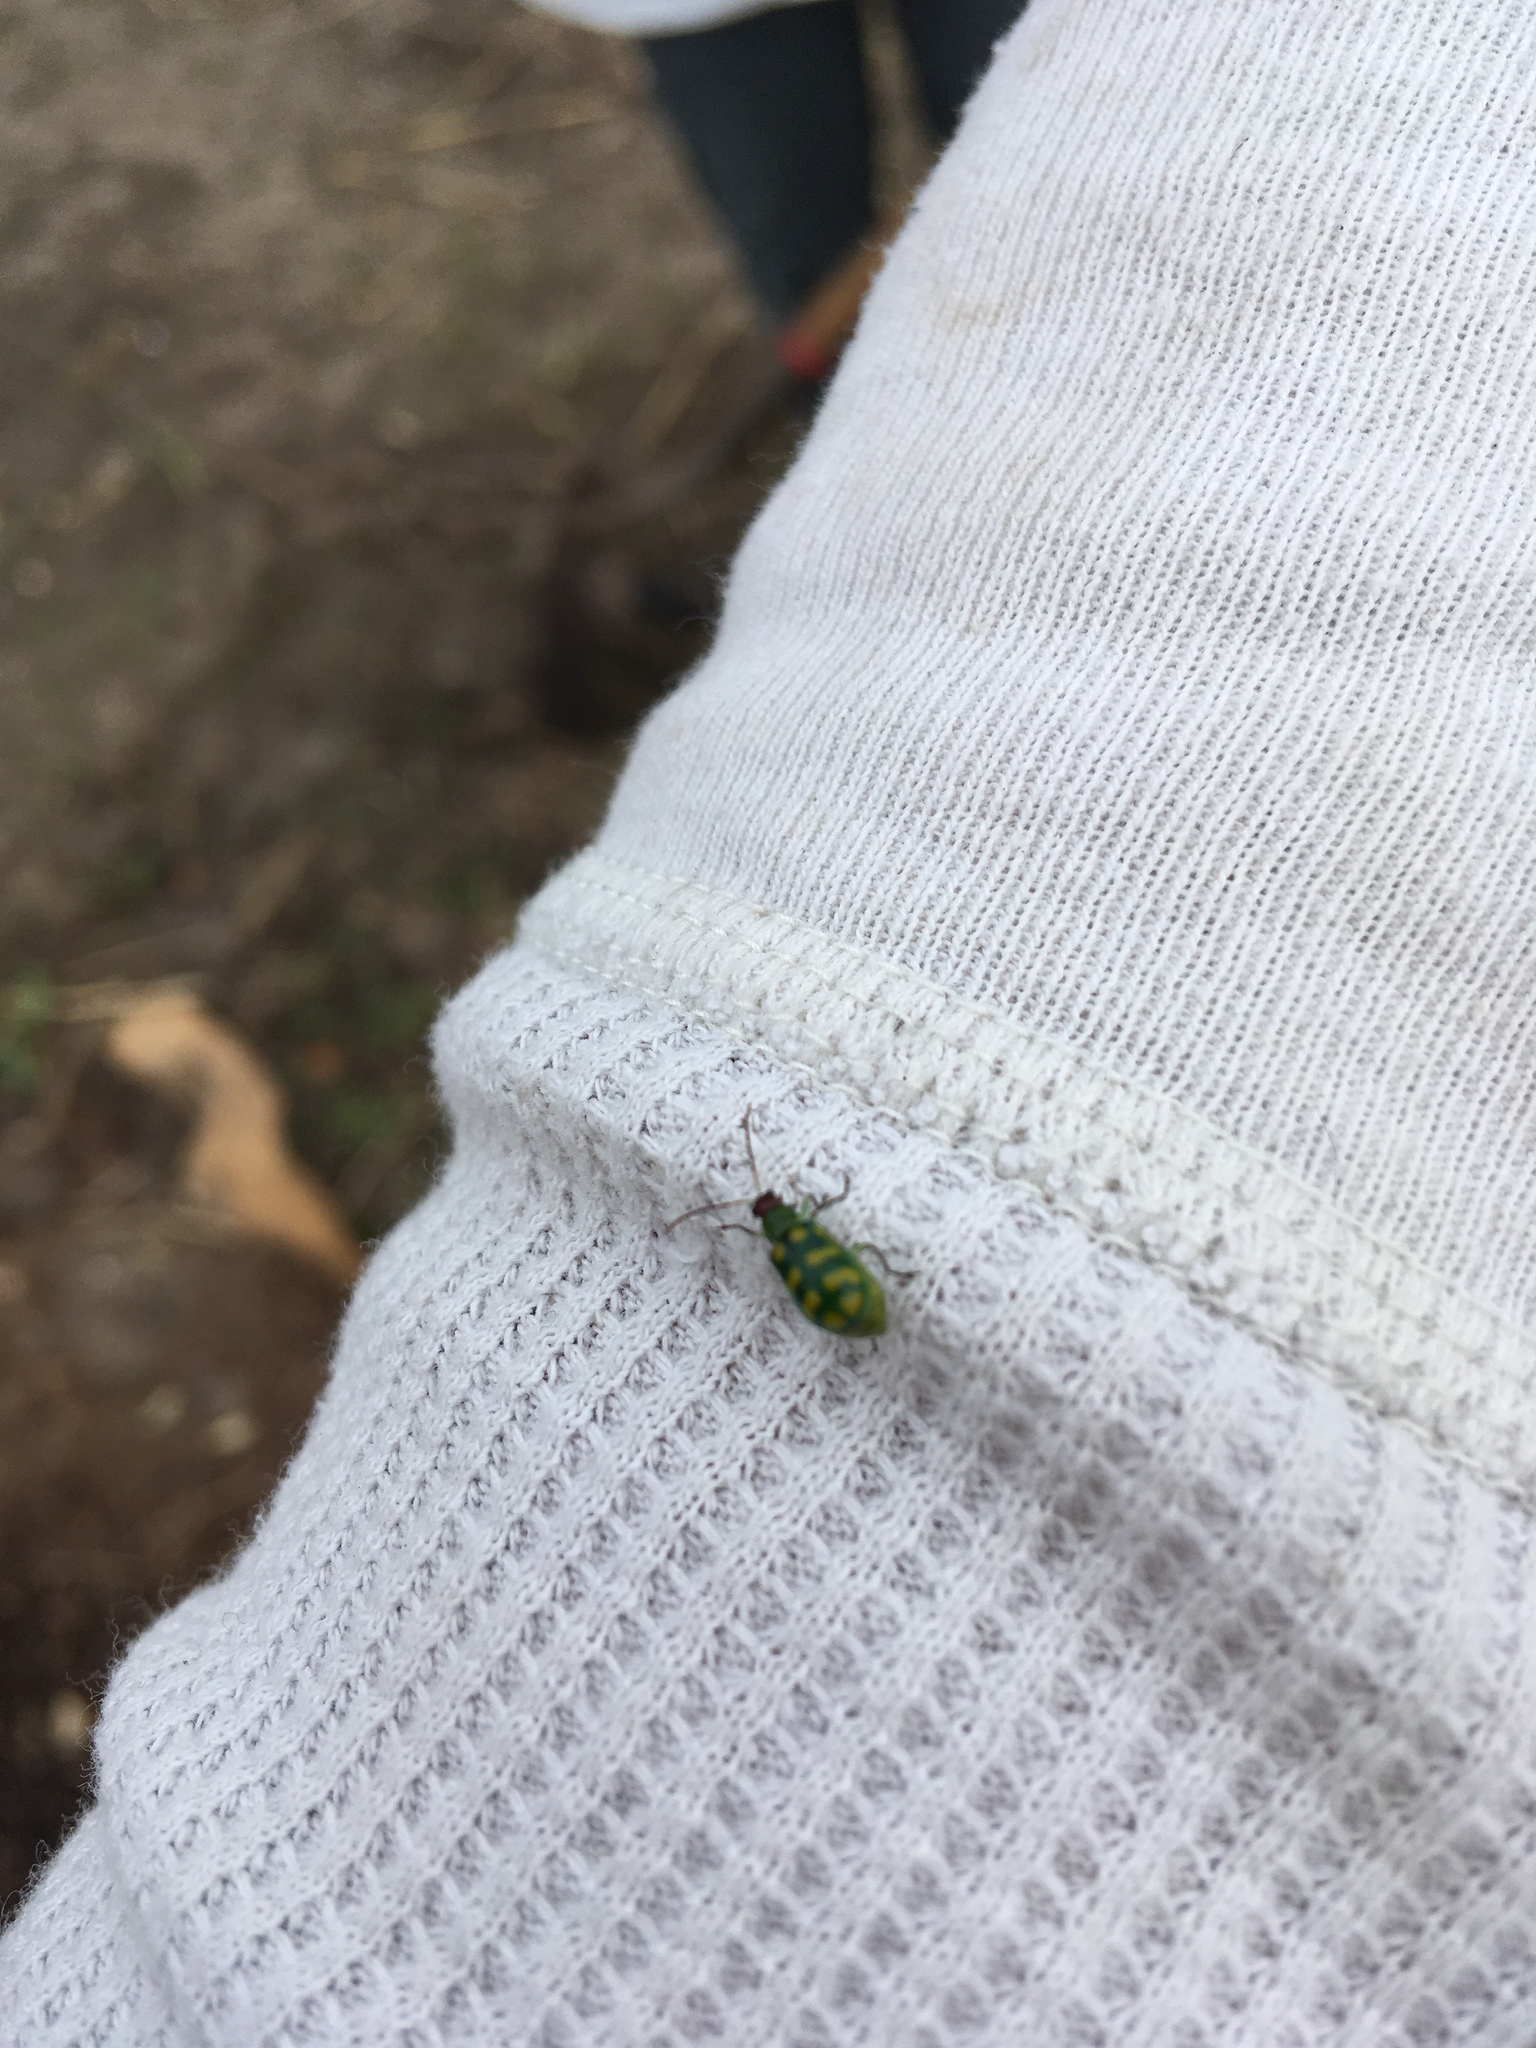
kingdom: Animalia
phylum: Arthropoda
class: Insecta
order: Coleoptera
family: Chrysomelidae
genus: Diabrotica
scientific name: Diabrotica balteata
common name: Leaf beetle
